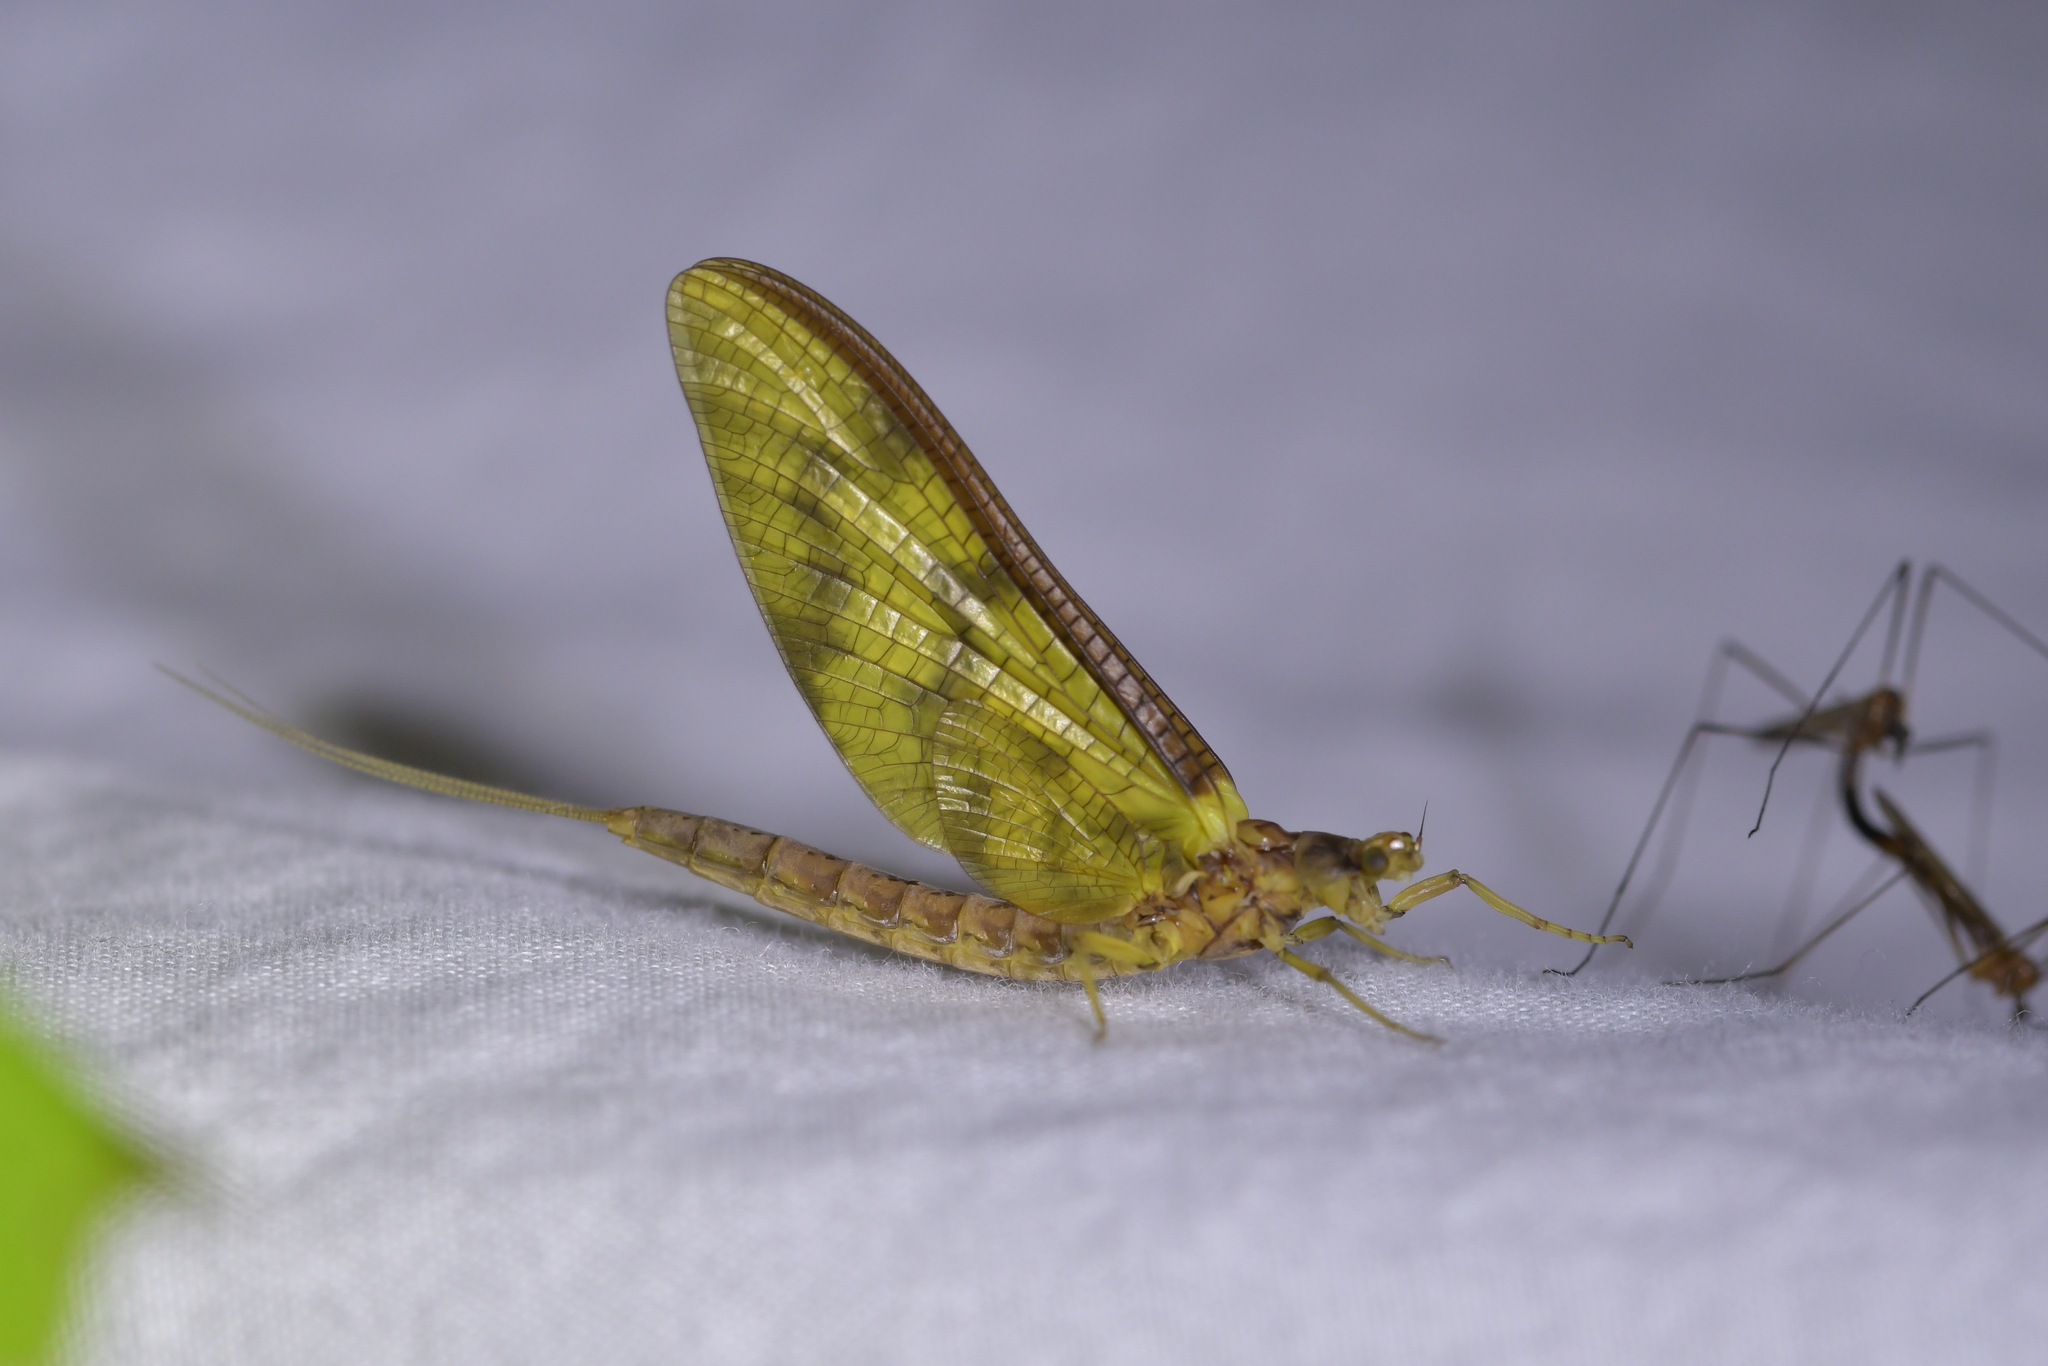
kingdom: Animalia
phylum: Arthropoda
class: Insecta
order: Ephemeroptera
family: Ichthybotidae
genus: Ichthybotus
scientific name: Ichthybotus hudsoni
